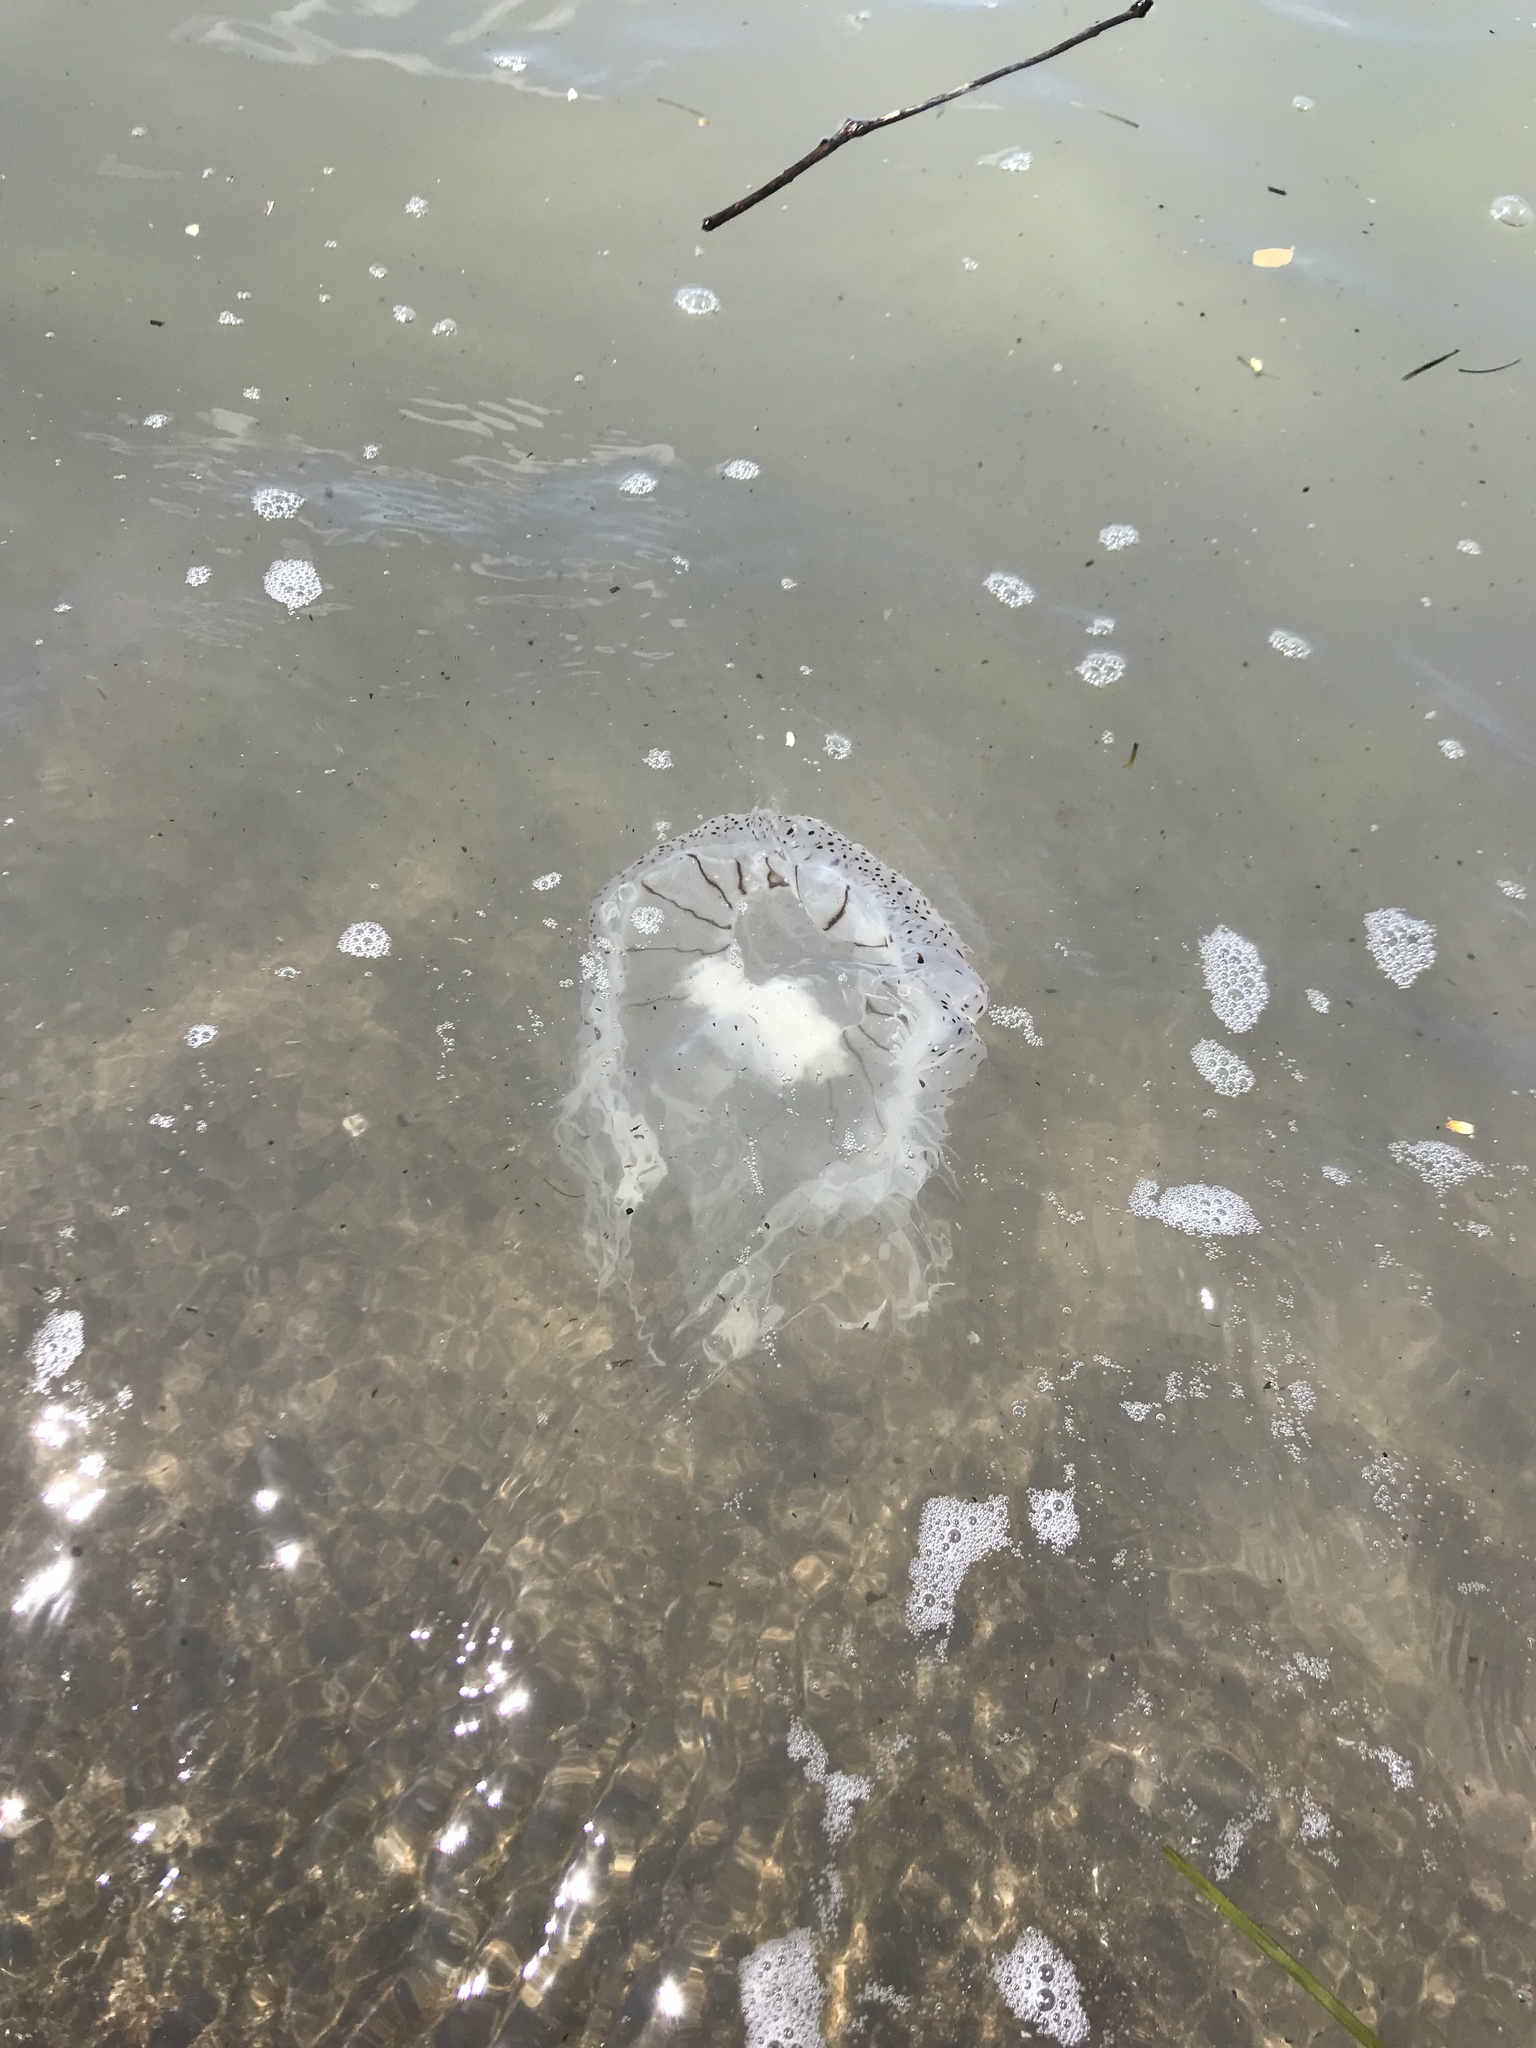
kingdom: Animalia
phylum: Cnidaria
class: Scyphozoa
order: Semaeostomeae
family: Cyaneidae
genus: Desmonema
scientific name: Desmonema gaudichaudi
